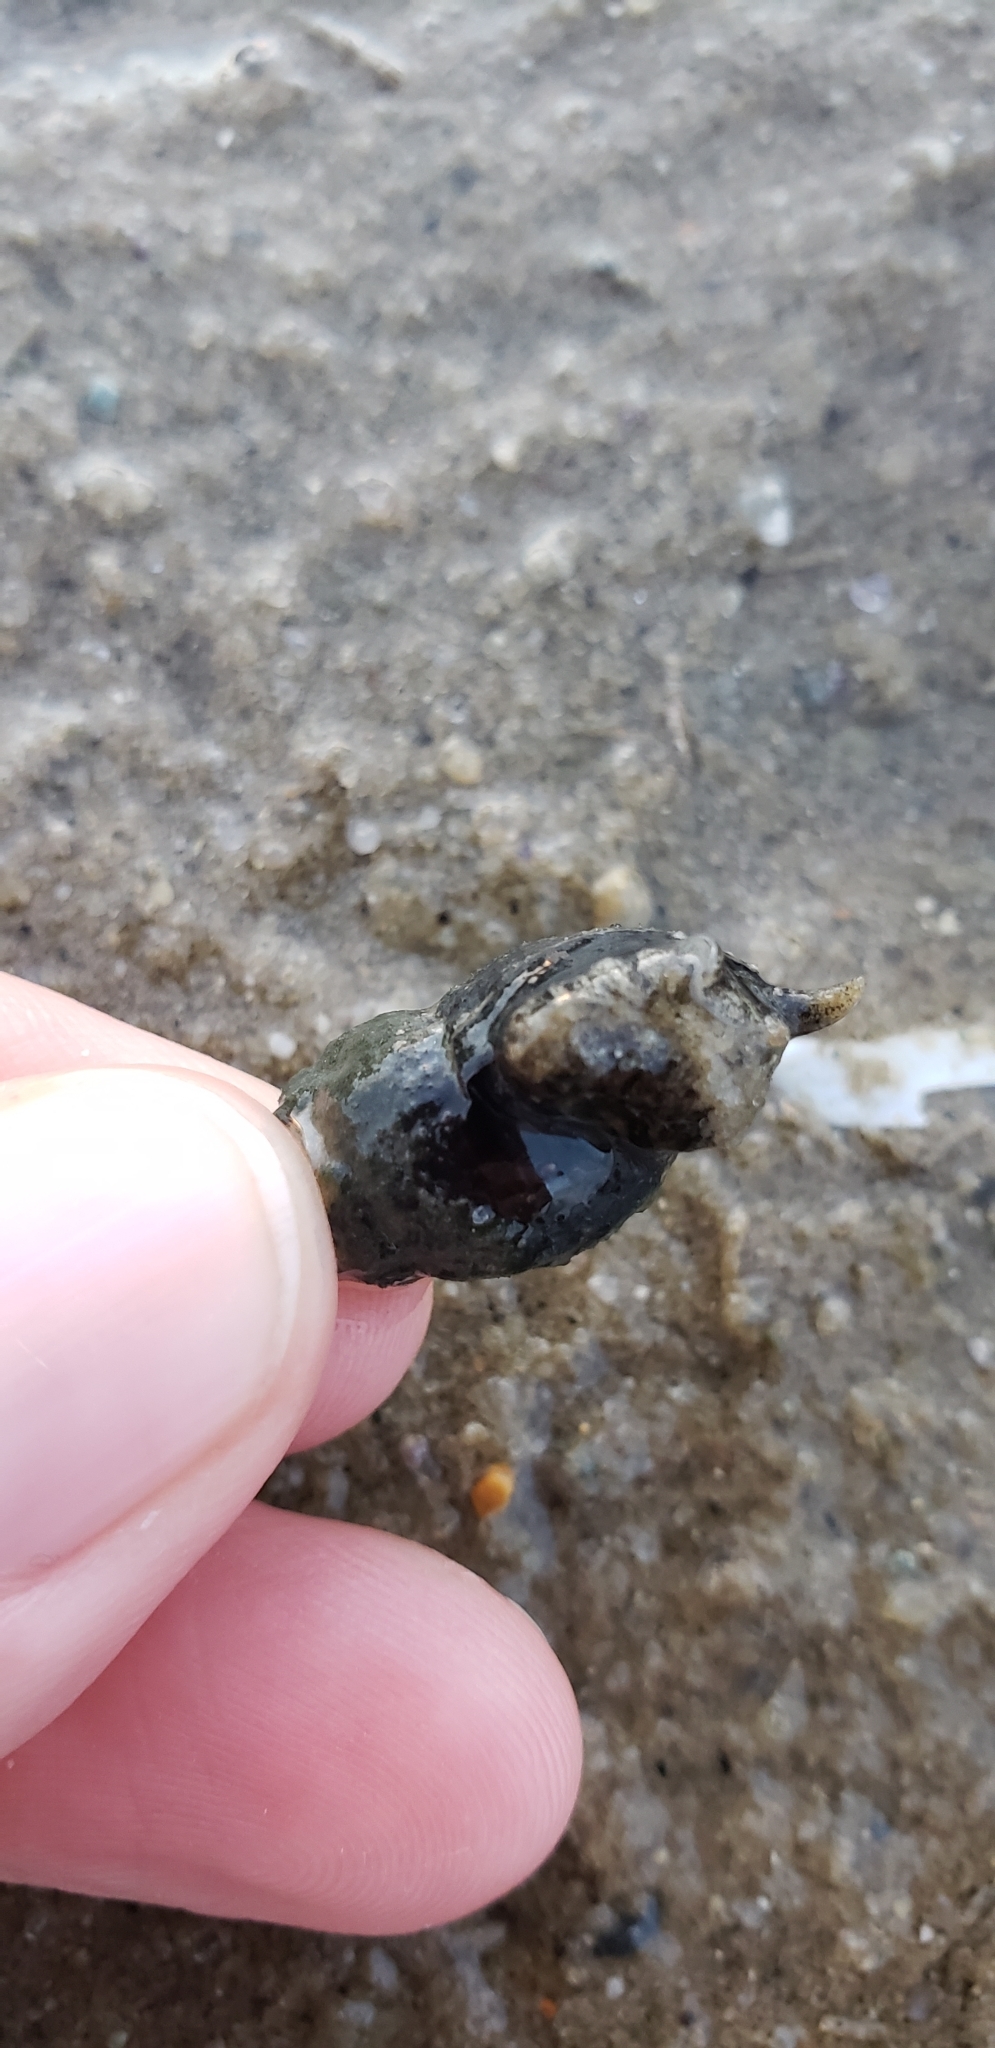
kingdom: Animalia
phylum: Mollusca
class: Gastropoda
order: Neogastropoda
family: Nassariidae
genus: Ilyanassa
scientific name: Ilyanassa obsoleta
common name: Eastern mudsnail
